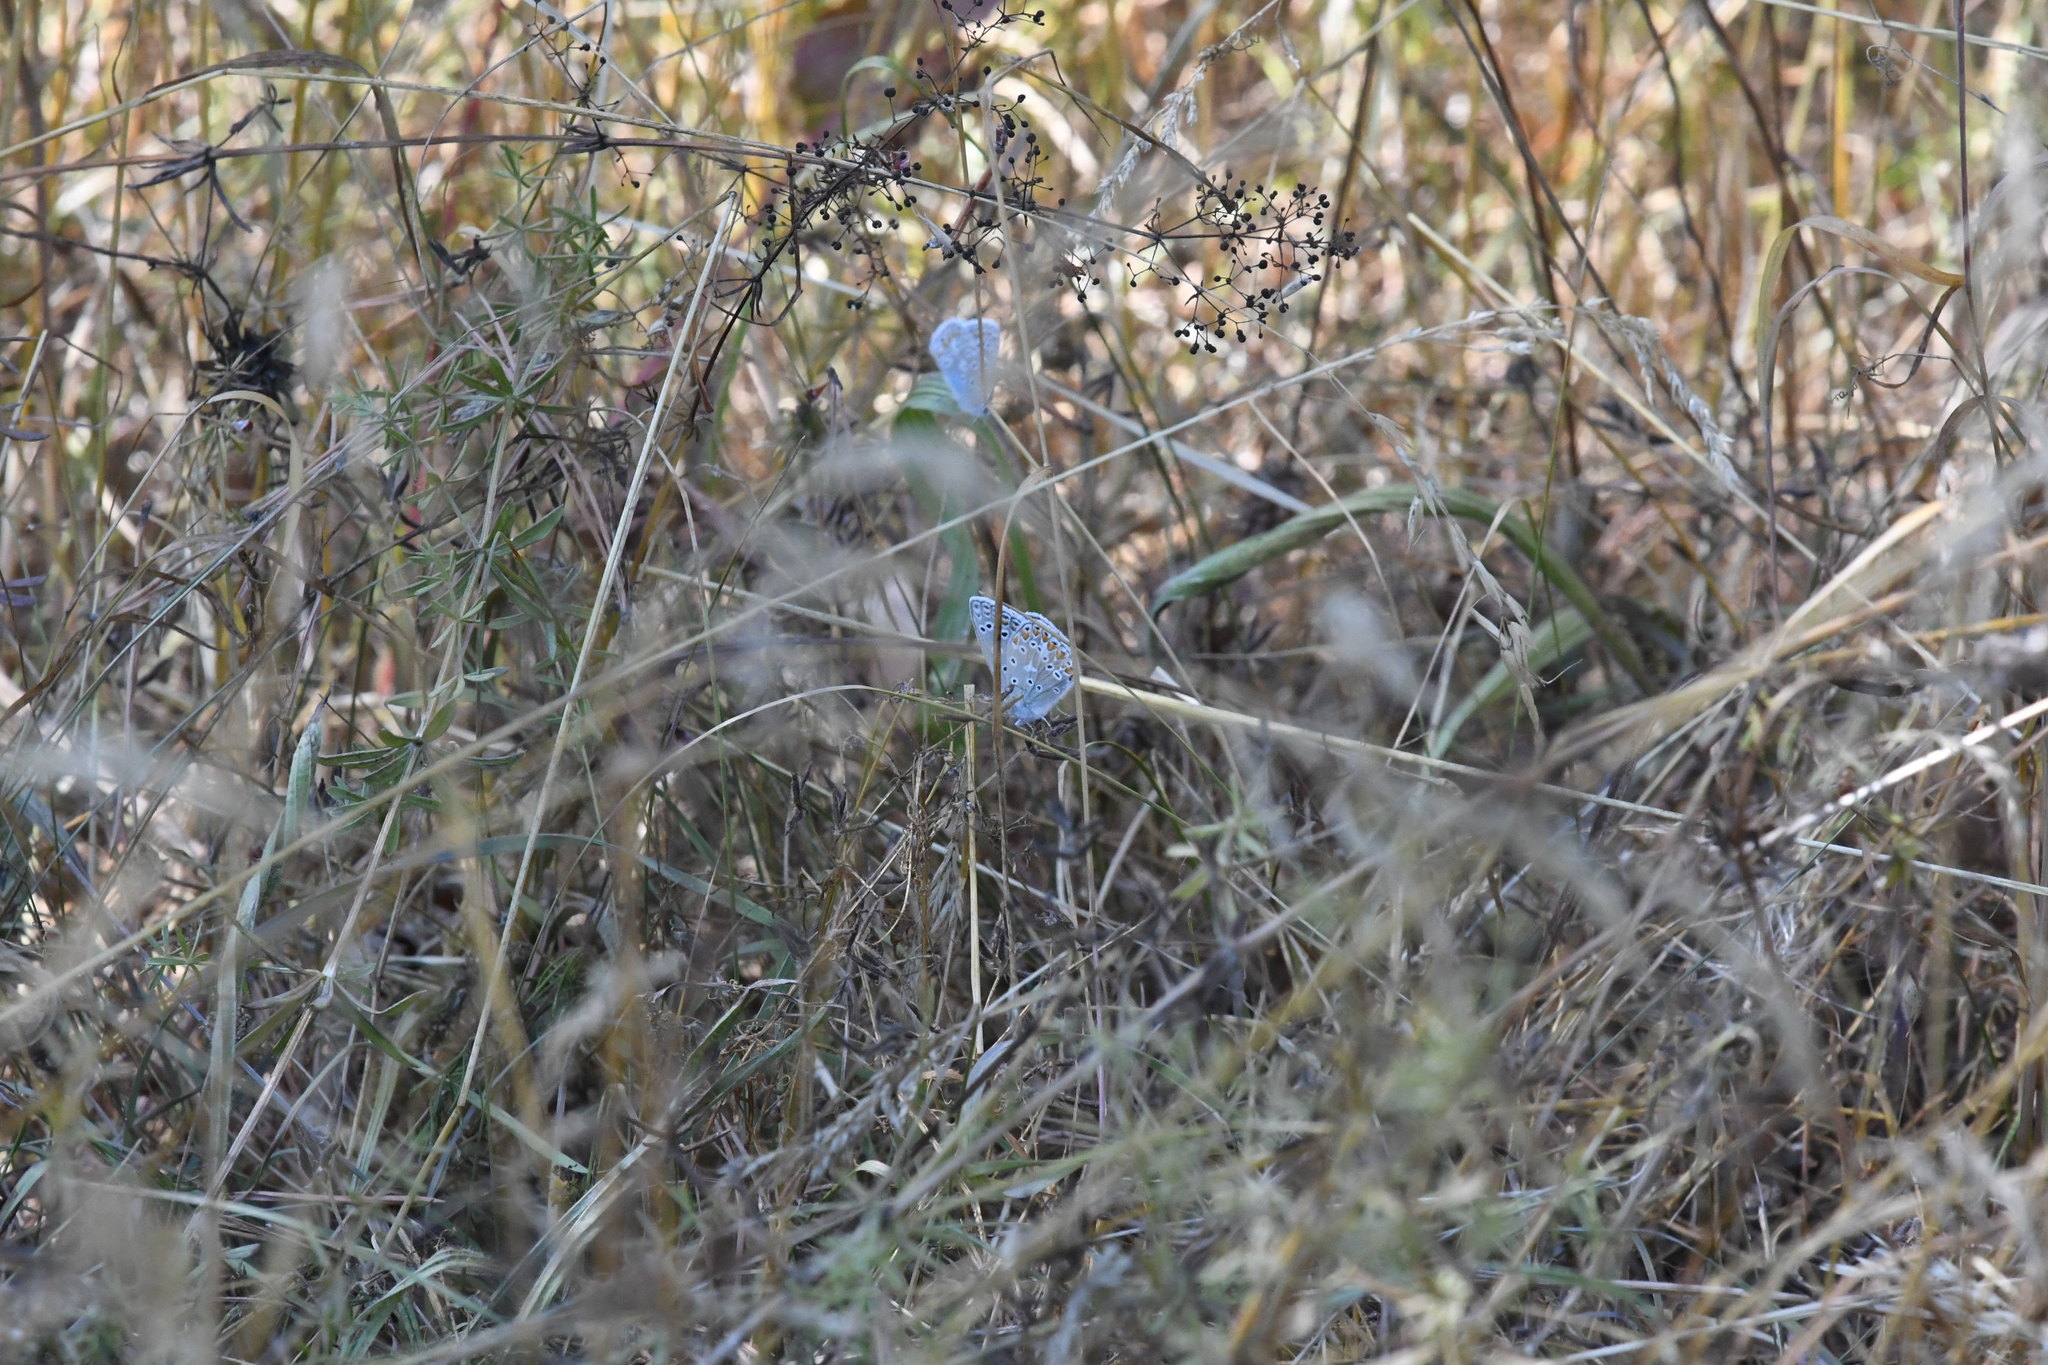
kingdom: Animalia
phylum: Arthropoda
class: Insecta
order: Lepidoptera
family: Lycaenidae
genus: Polyommatus
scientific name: Polyommatus icarus
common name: Common blue
